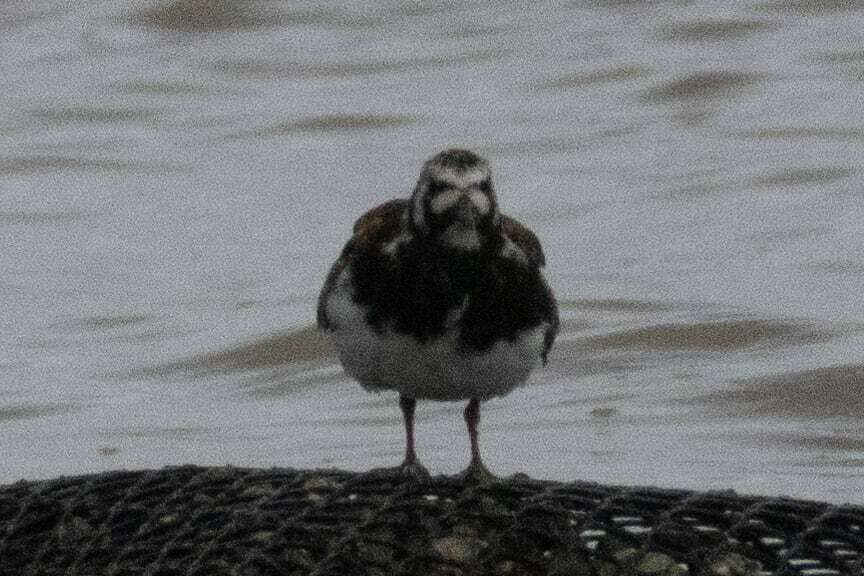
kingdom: Animalia
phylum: Chordata
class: Aves
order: Charadriiformes
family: Scolopacidae
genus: Arenaria
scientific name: Arenaria interpres
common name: Ruddy turnstone
